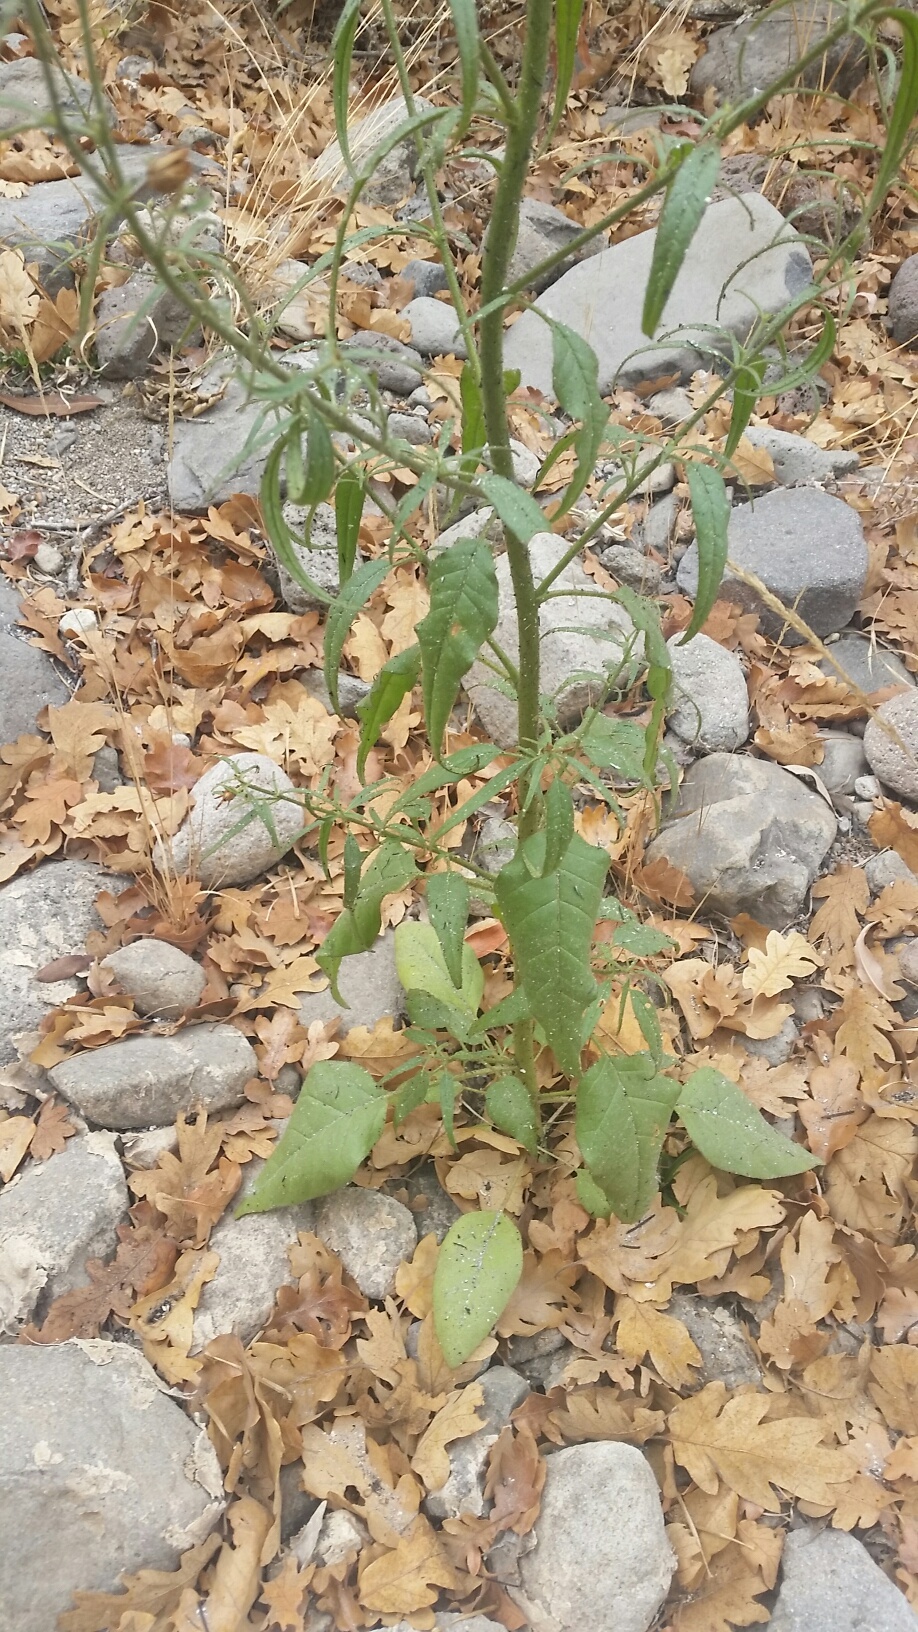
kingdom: Plantae
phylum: Tracheophyta
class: Magnoliopsida
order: Solanales
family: Solanaceae
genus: Nicotiana
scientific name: Nicotiana attenuata
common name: Coyote tobacco
